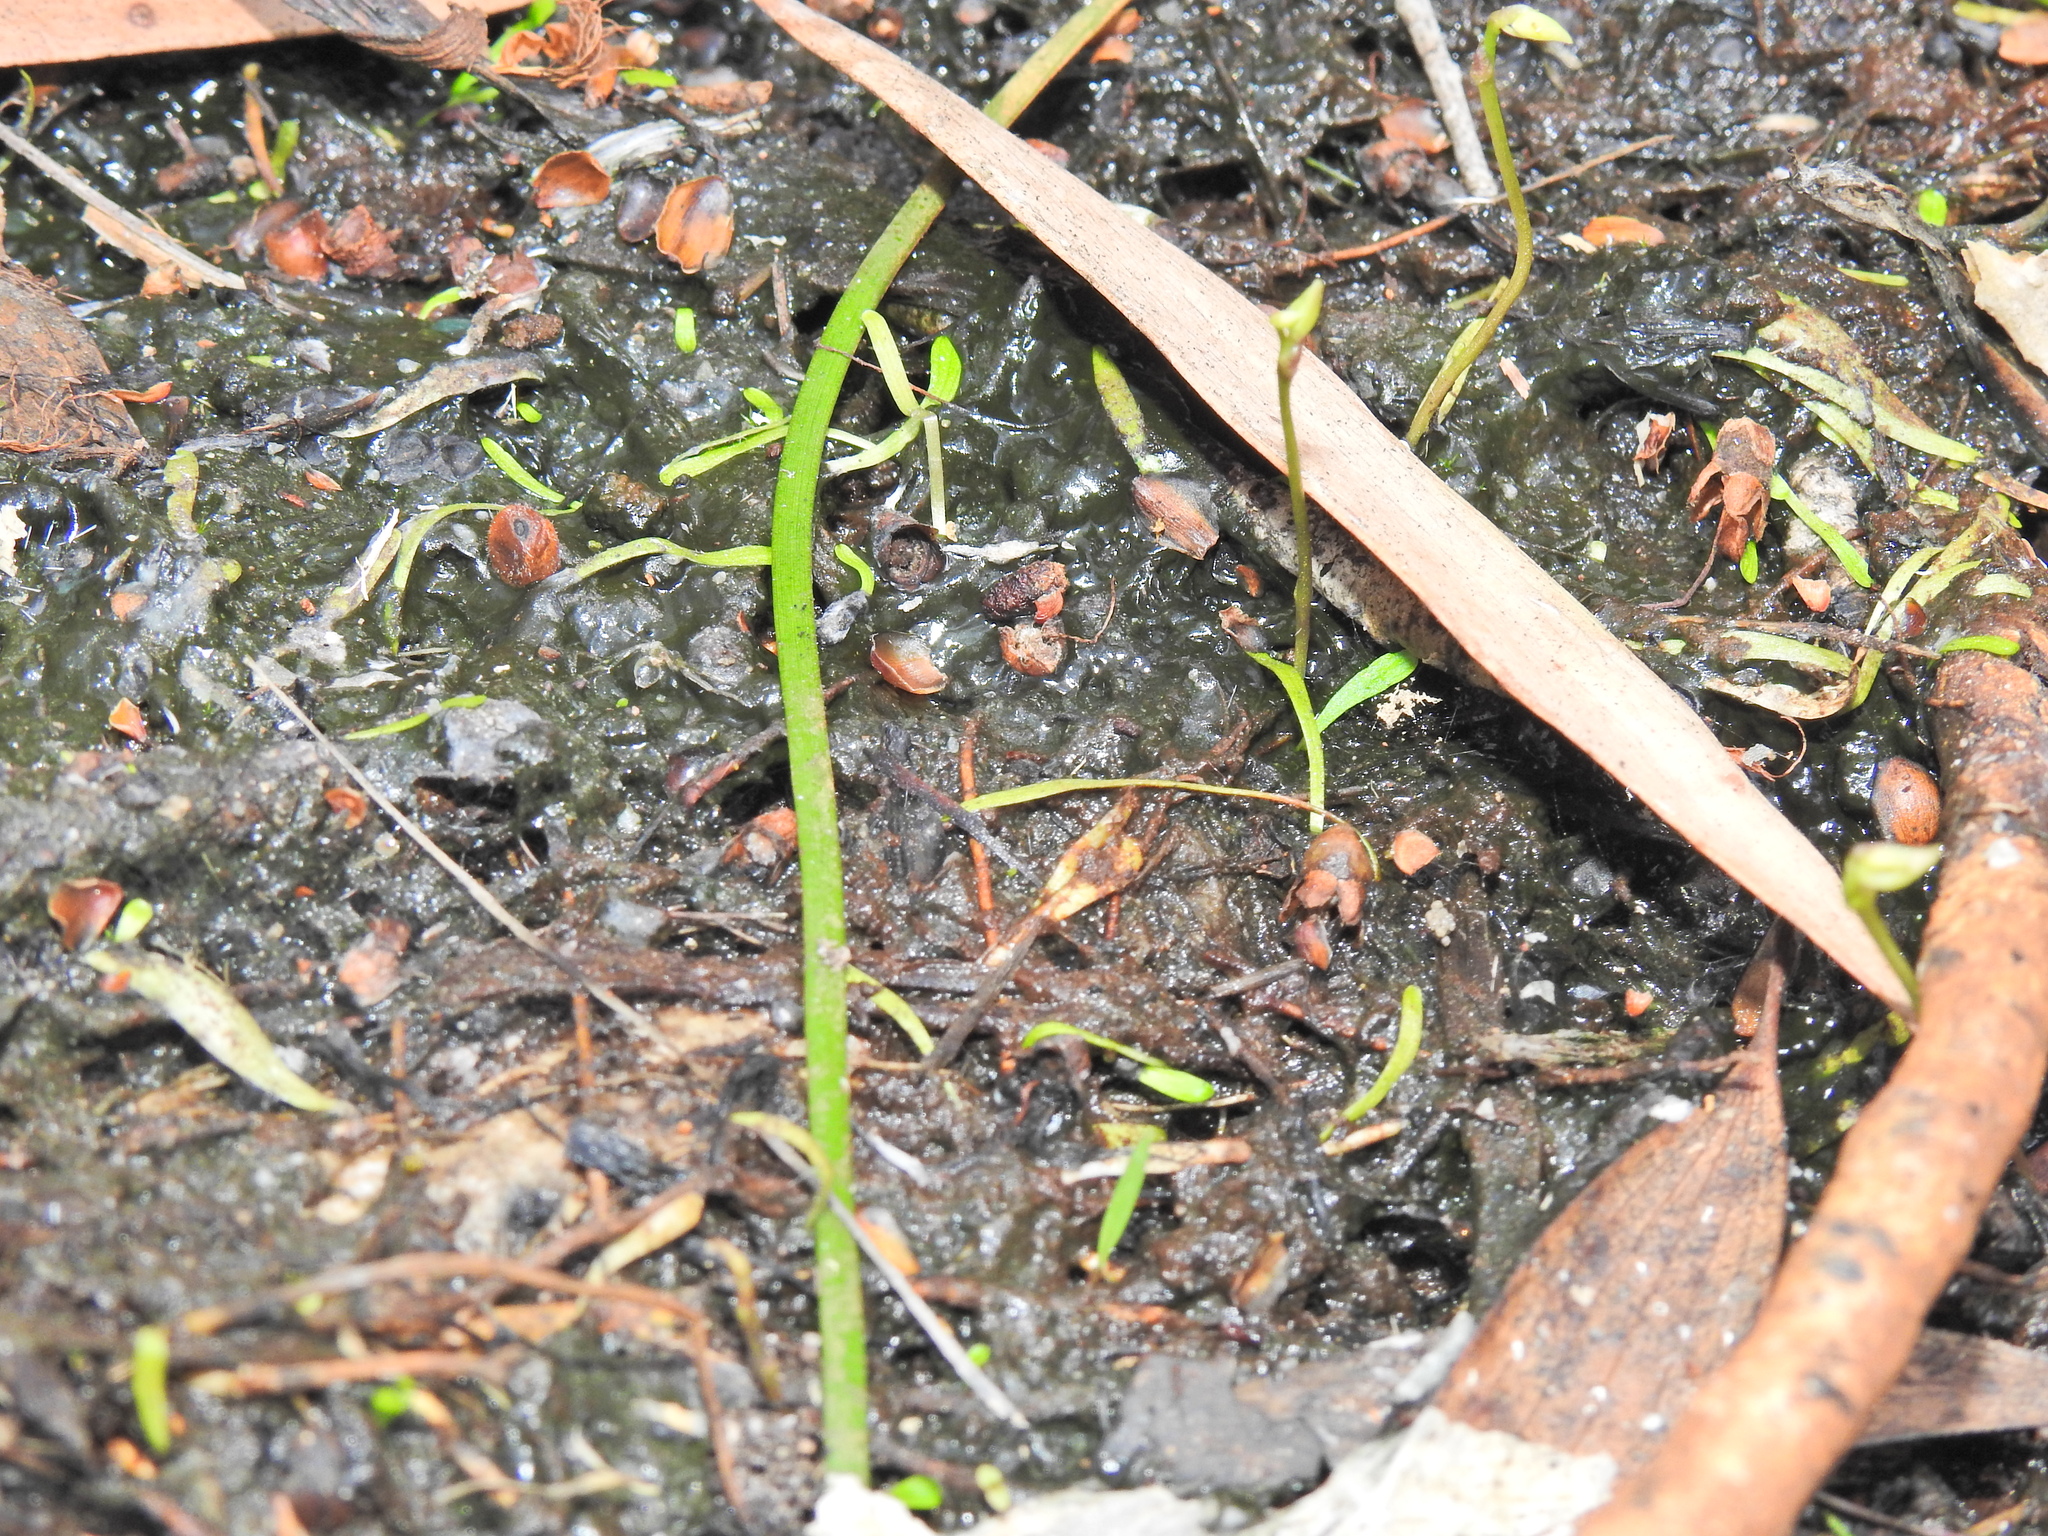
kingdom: Plantae
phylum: Tracheophyta
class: Magnoliopsida
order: Lamiales
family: Lentibulariaceae
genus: Utricularia
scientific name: Utricularia uliginosa
